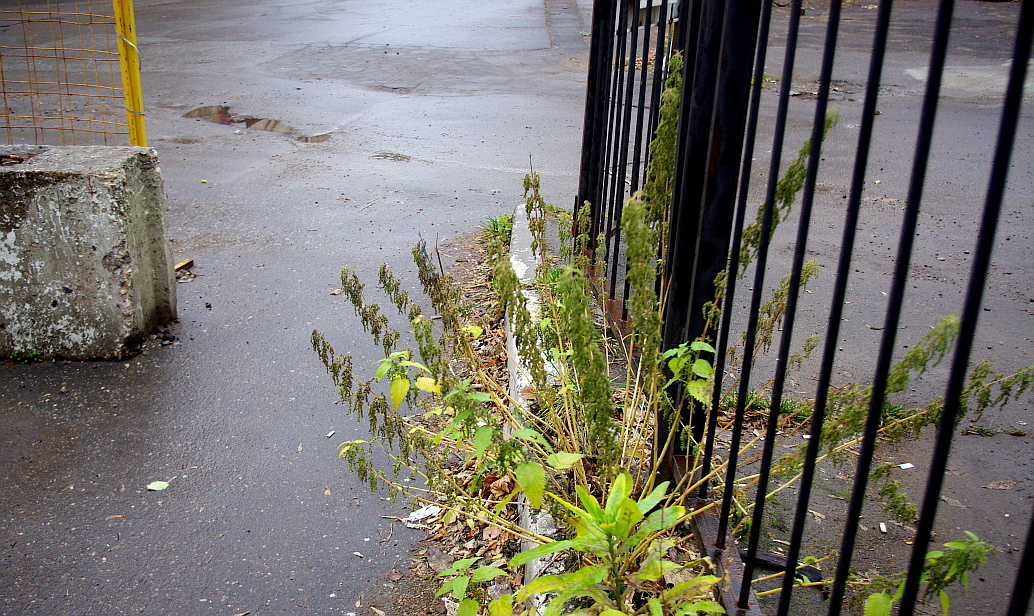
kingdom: Plantae
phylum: Tracheophyta
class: Magnoliopsida
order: Rosales
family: Urticaceae
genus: Urtica
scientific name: Urtica dioica
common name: Common nettle
